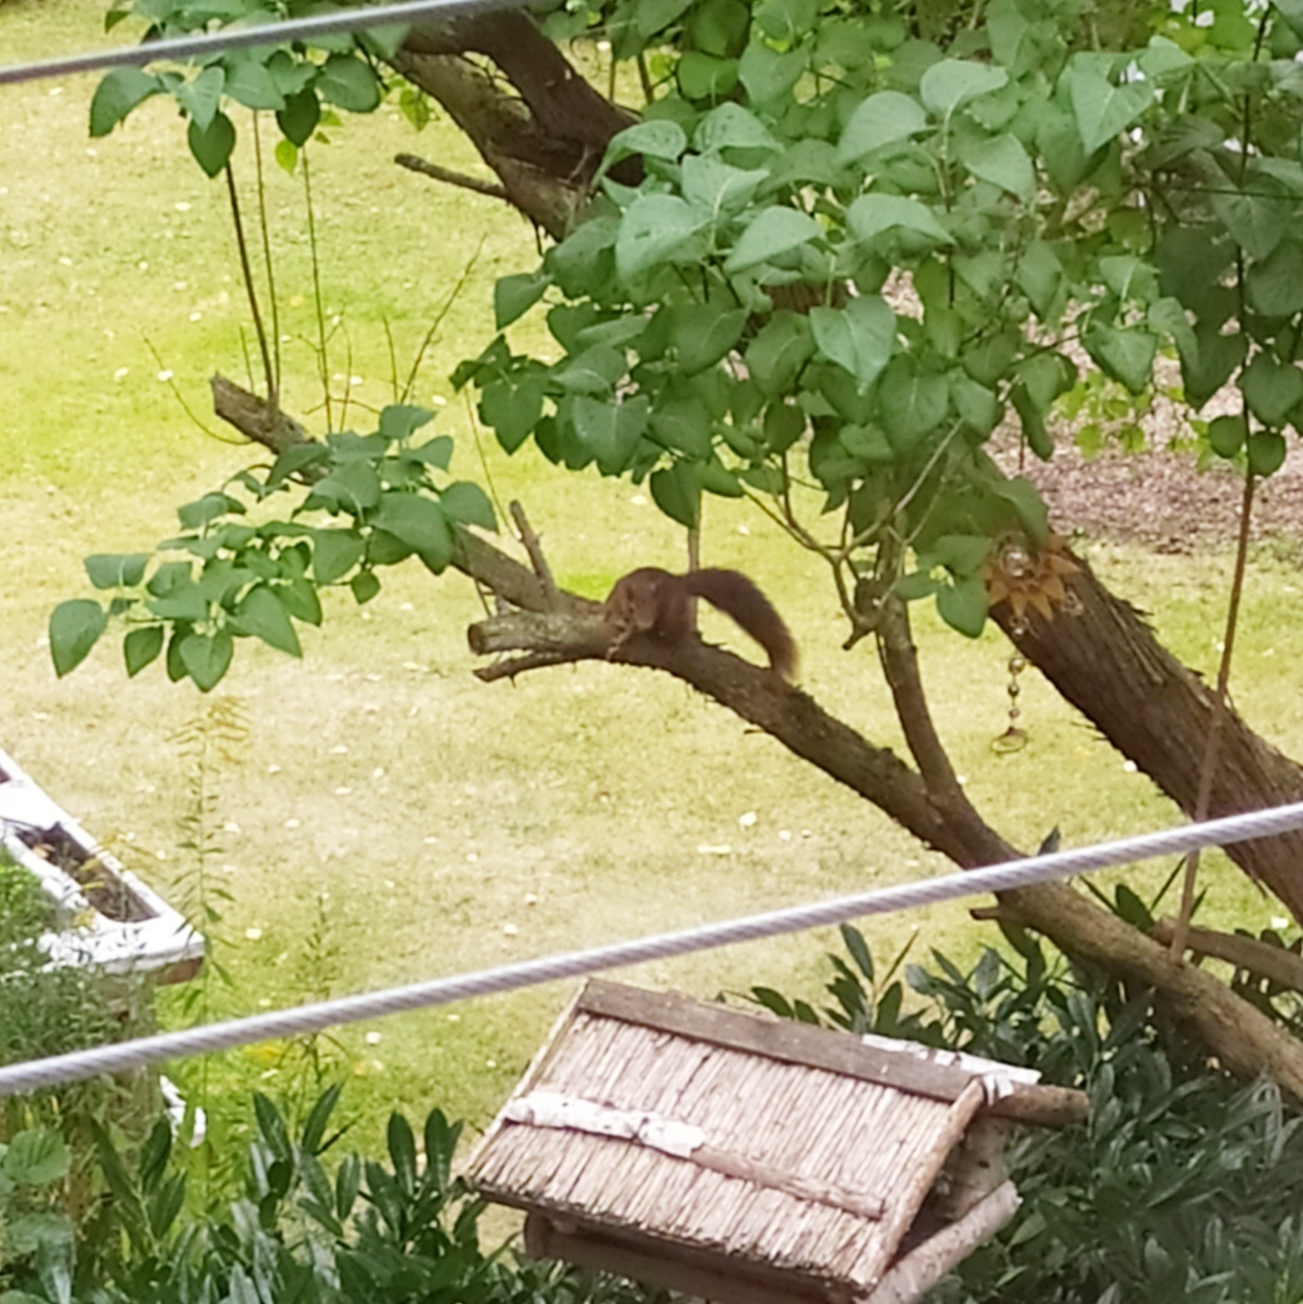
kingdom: Animalia
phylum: Chordata
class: Mammalia
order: Rodentia
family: Sciuridae
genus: Sciurus
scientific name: Sciurus vulgaris
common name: Eurasian red squirrel
